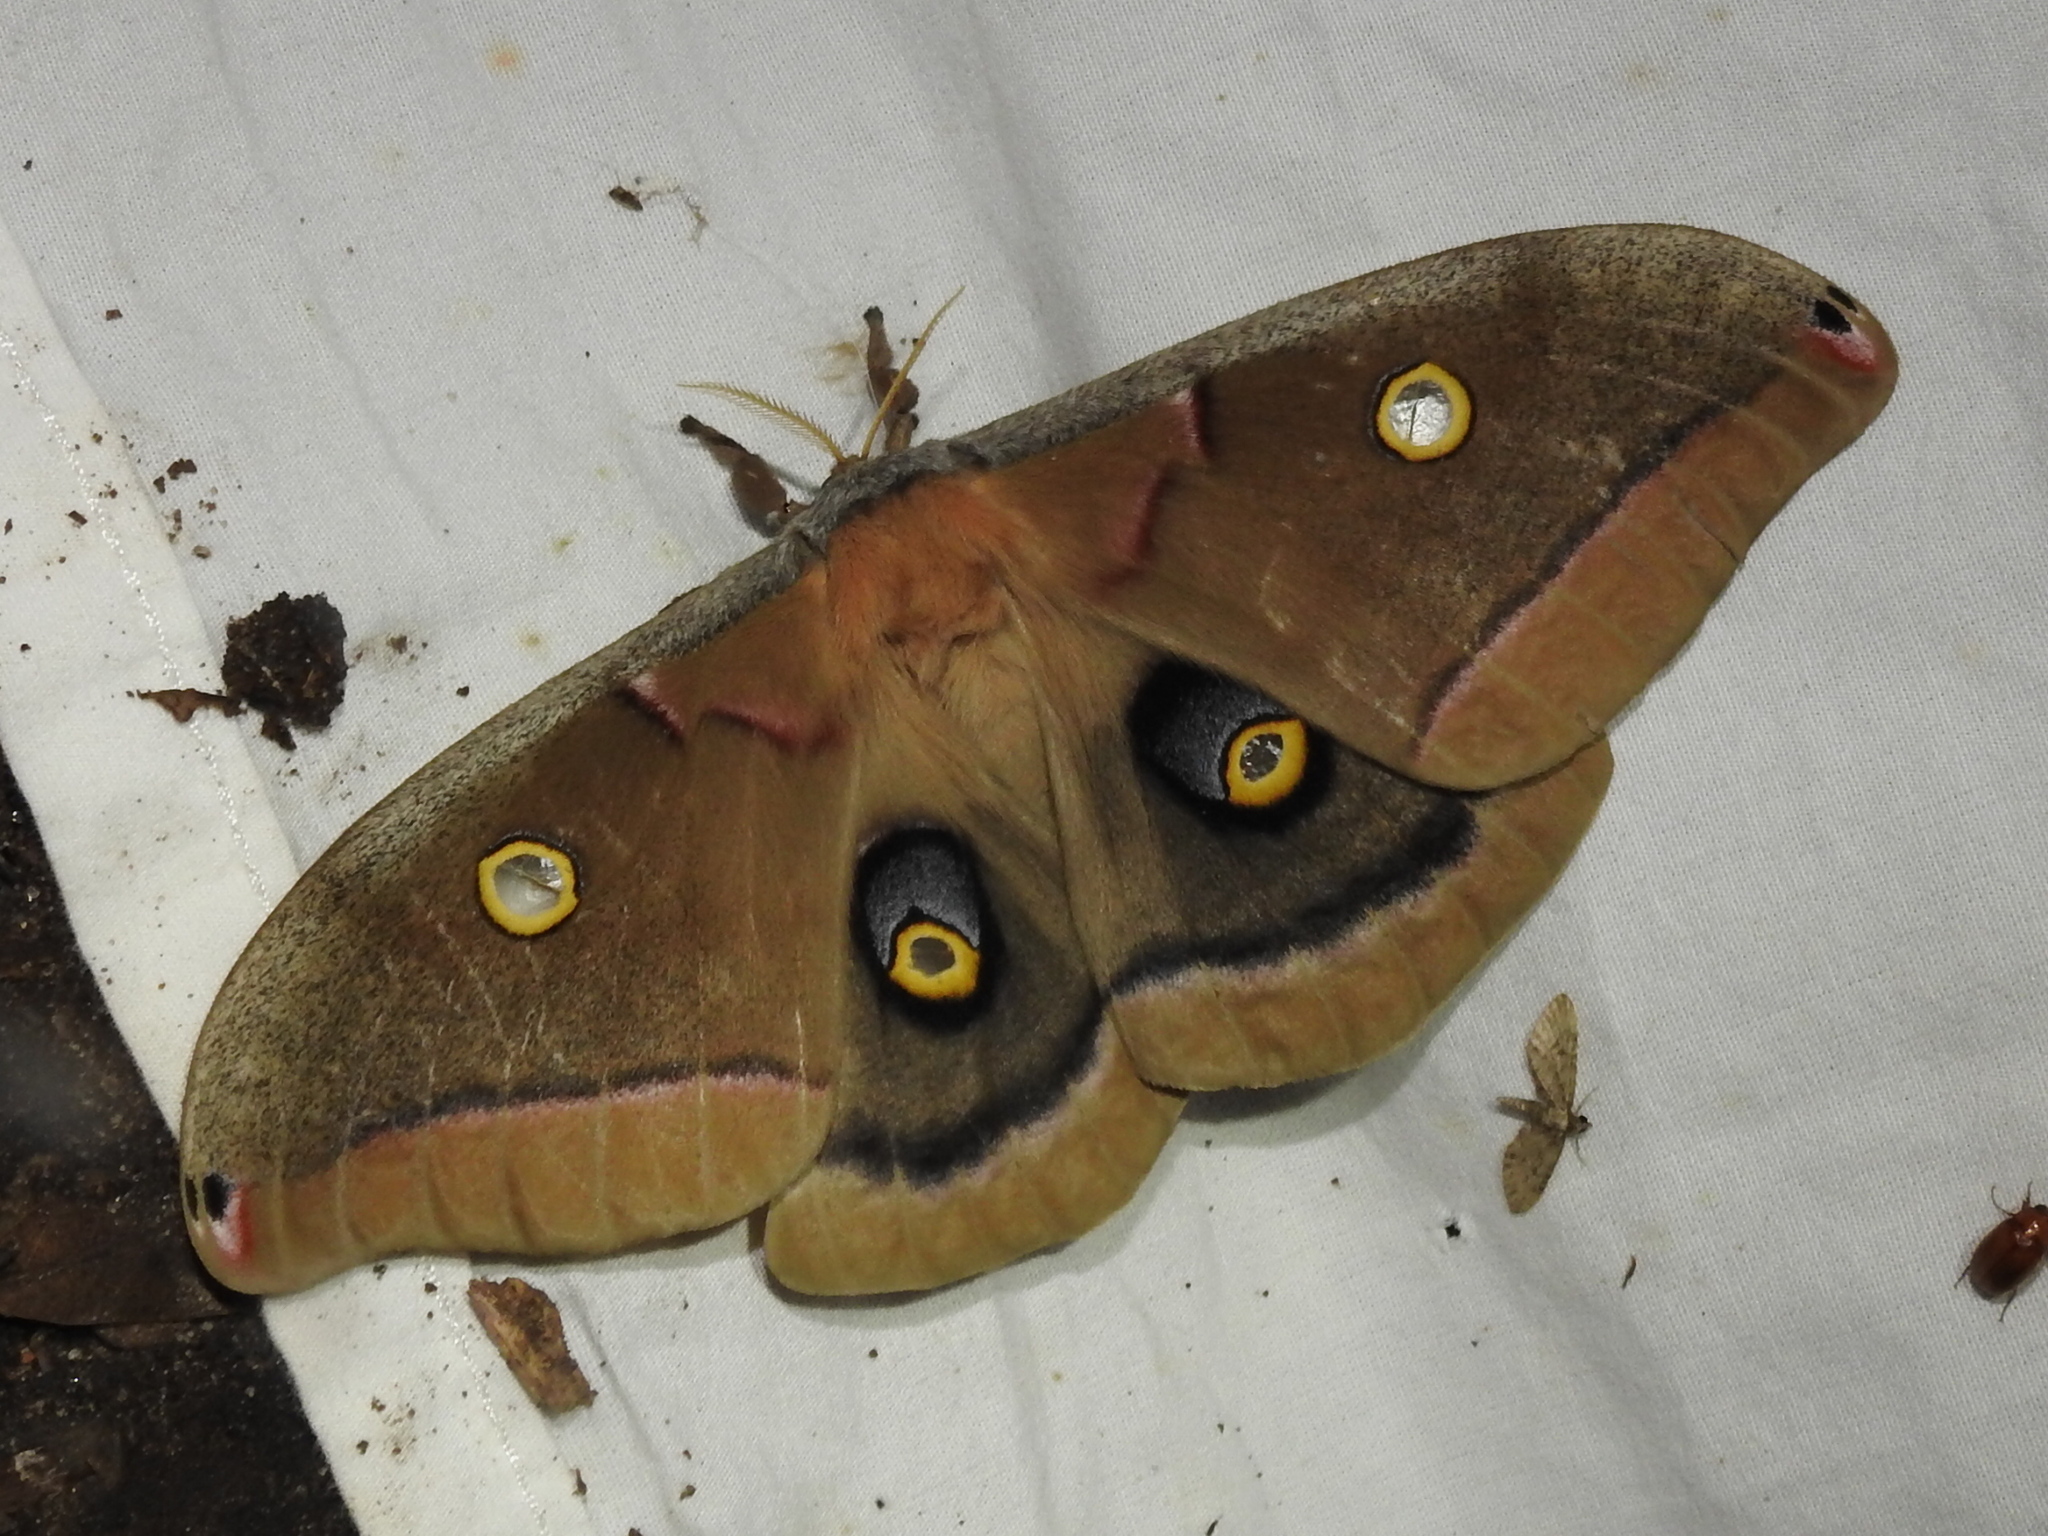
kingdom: Animalia
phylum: Arthropoda
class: Insecta
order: Lepidoptera
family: Saturniidae
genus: Antheraea
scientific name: Antheraea polyphemus
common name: Polyphemus moth
